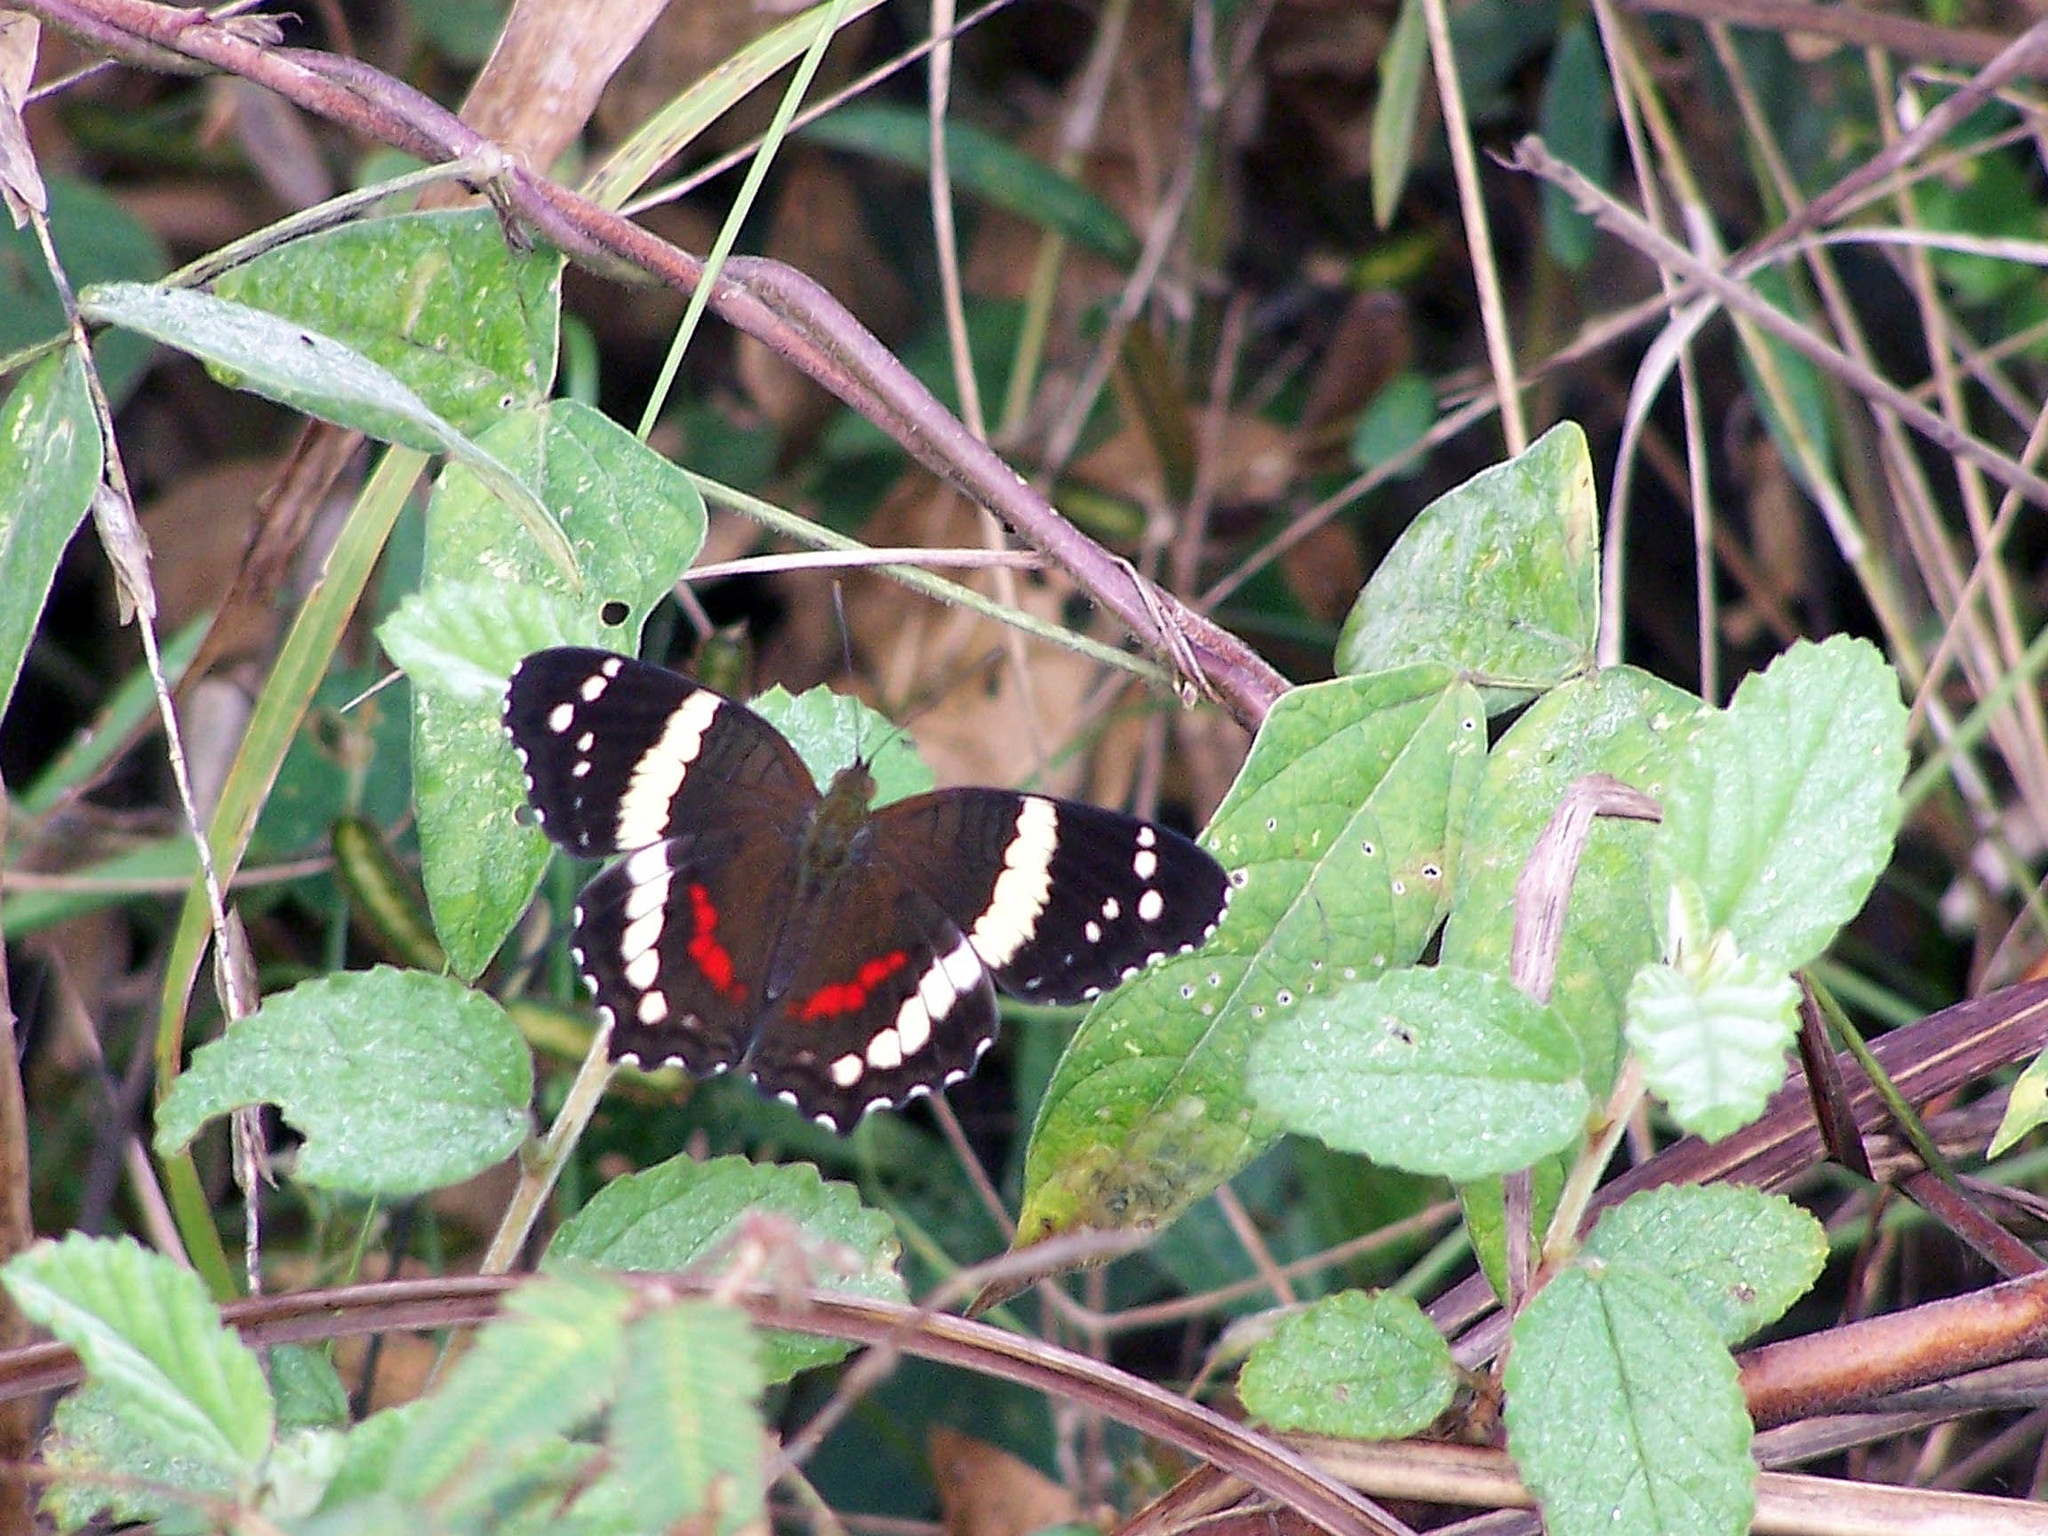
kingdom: Animalia
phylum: Arthropoda
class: Insecta
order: Lepidoptera
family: Nymphalidae
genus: Anartia
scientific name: Anartia fatima
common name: Banded peacock
